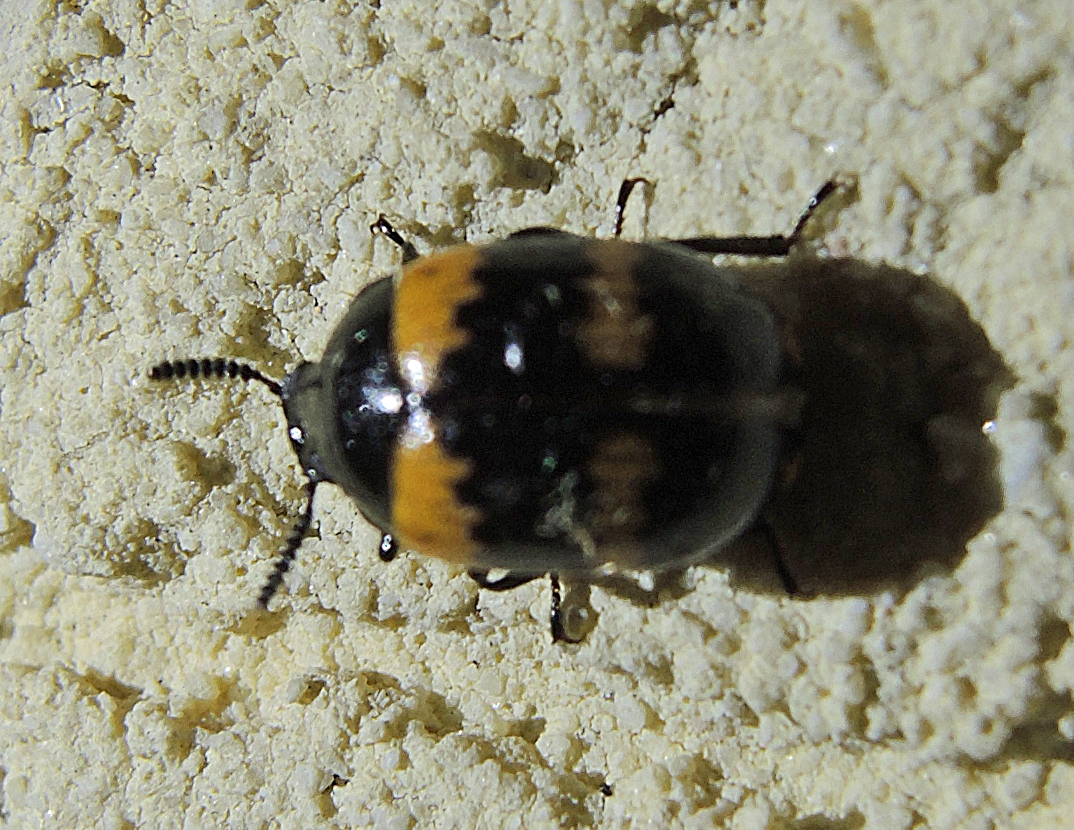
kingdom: Animalia
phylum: Arthropoda
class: Insecta
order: Coleoptera
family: Tenebrionidae
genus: Diaperis
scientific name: Diaperis boleti
